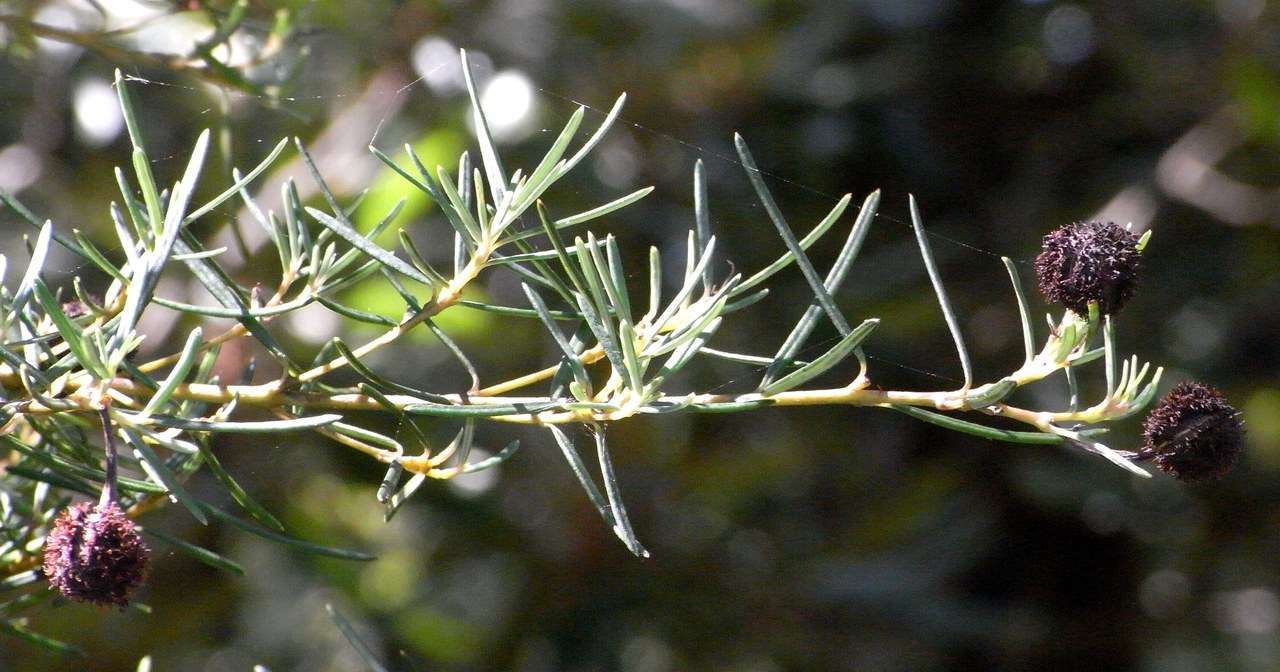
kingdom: Plantae
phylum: Tracheophyta
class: Magnoliopsida
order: Malpighiales
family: Euphorbiaceae
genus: Ricinocarpos
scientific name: Ricinocarpos pinifolius
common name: Weddingbush
